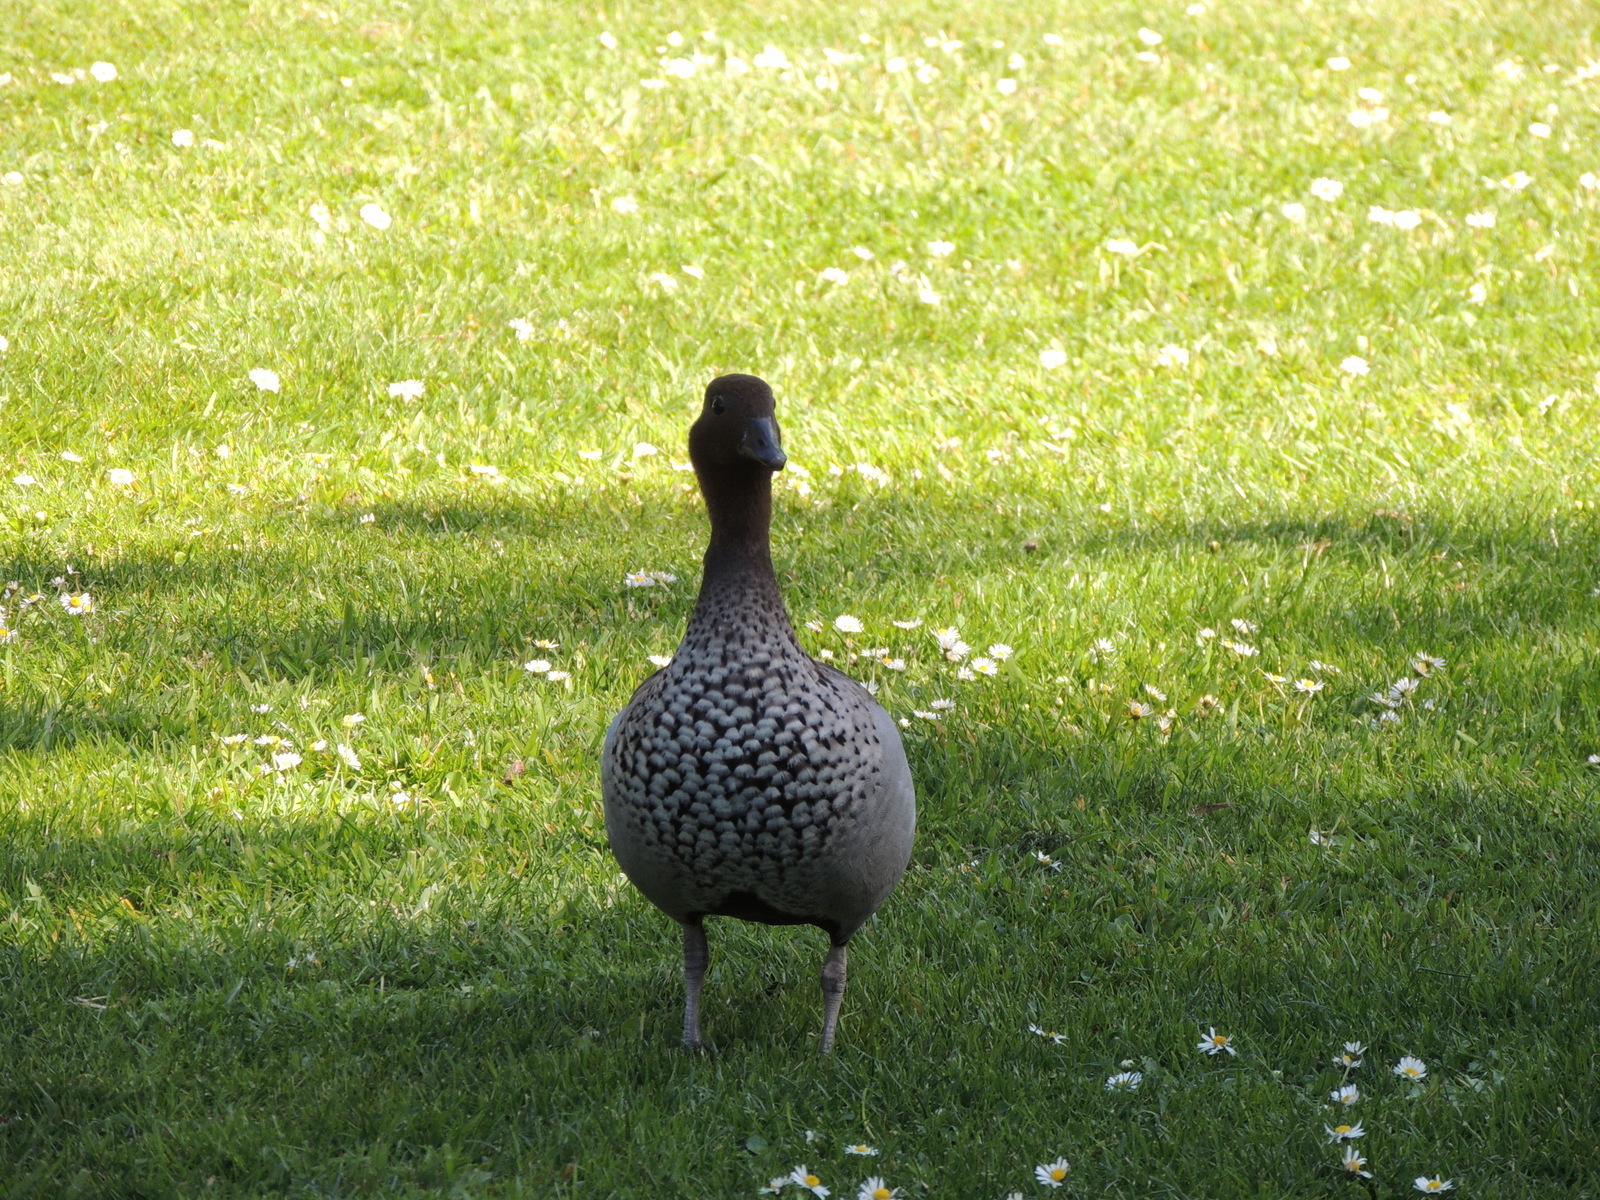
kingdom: Animalia
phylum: Chordata
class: Aves
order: Anseriformes
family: Anatidae
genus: Chenonetta
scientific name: Chenonetta jubata
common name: Maned duck
